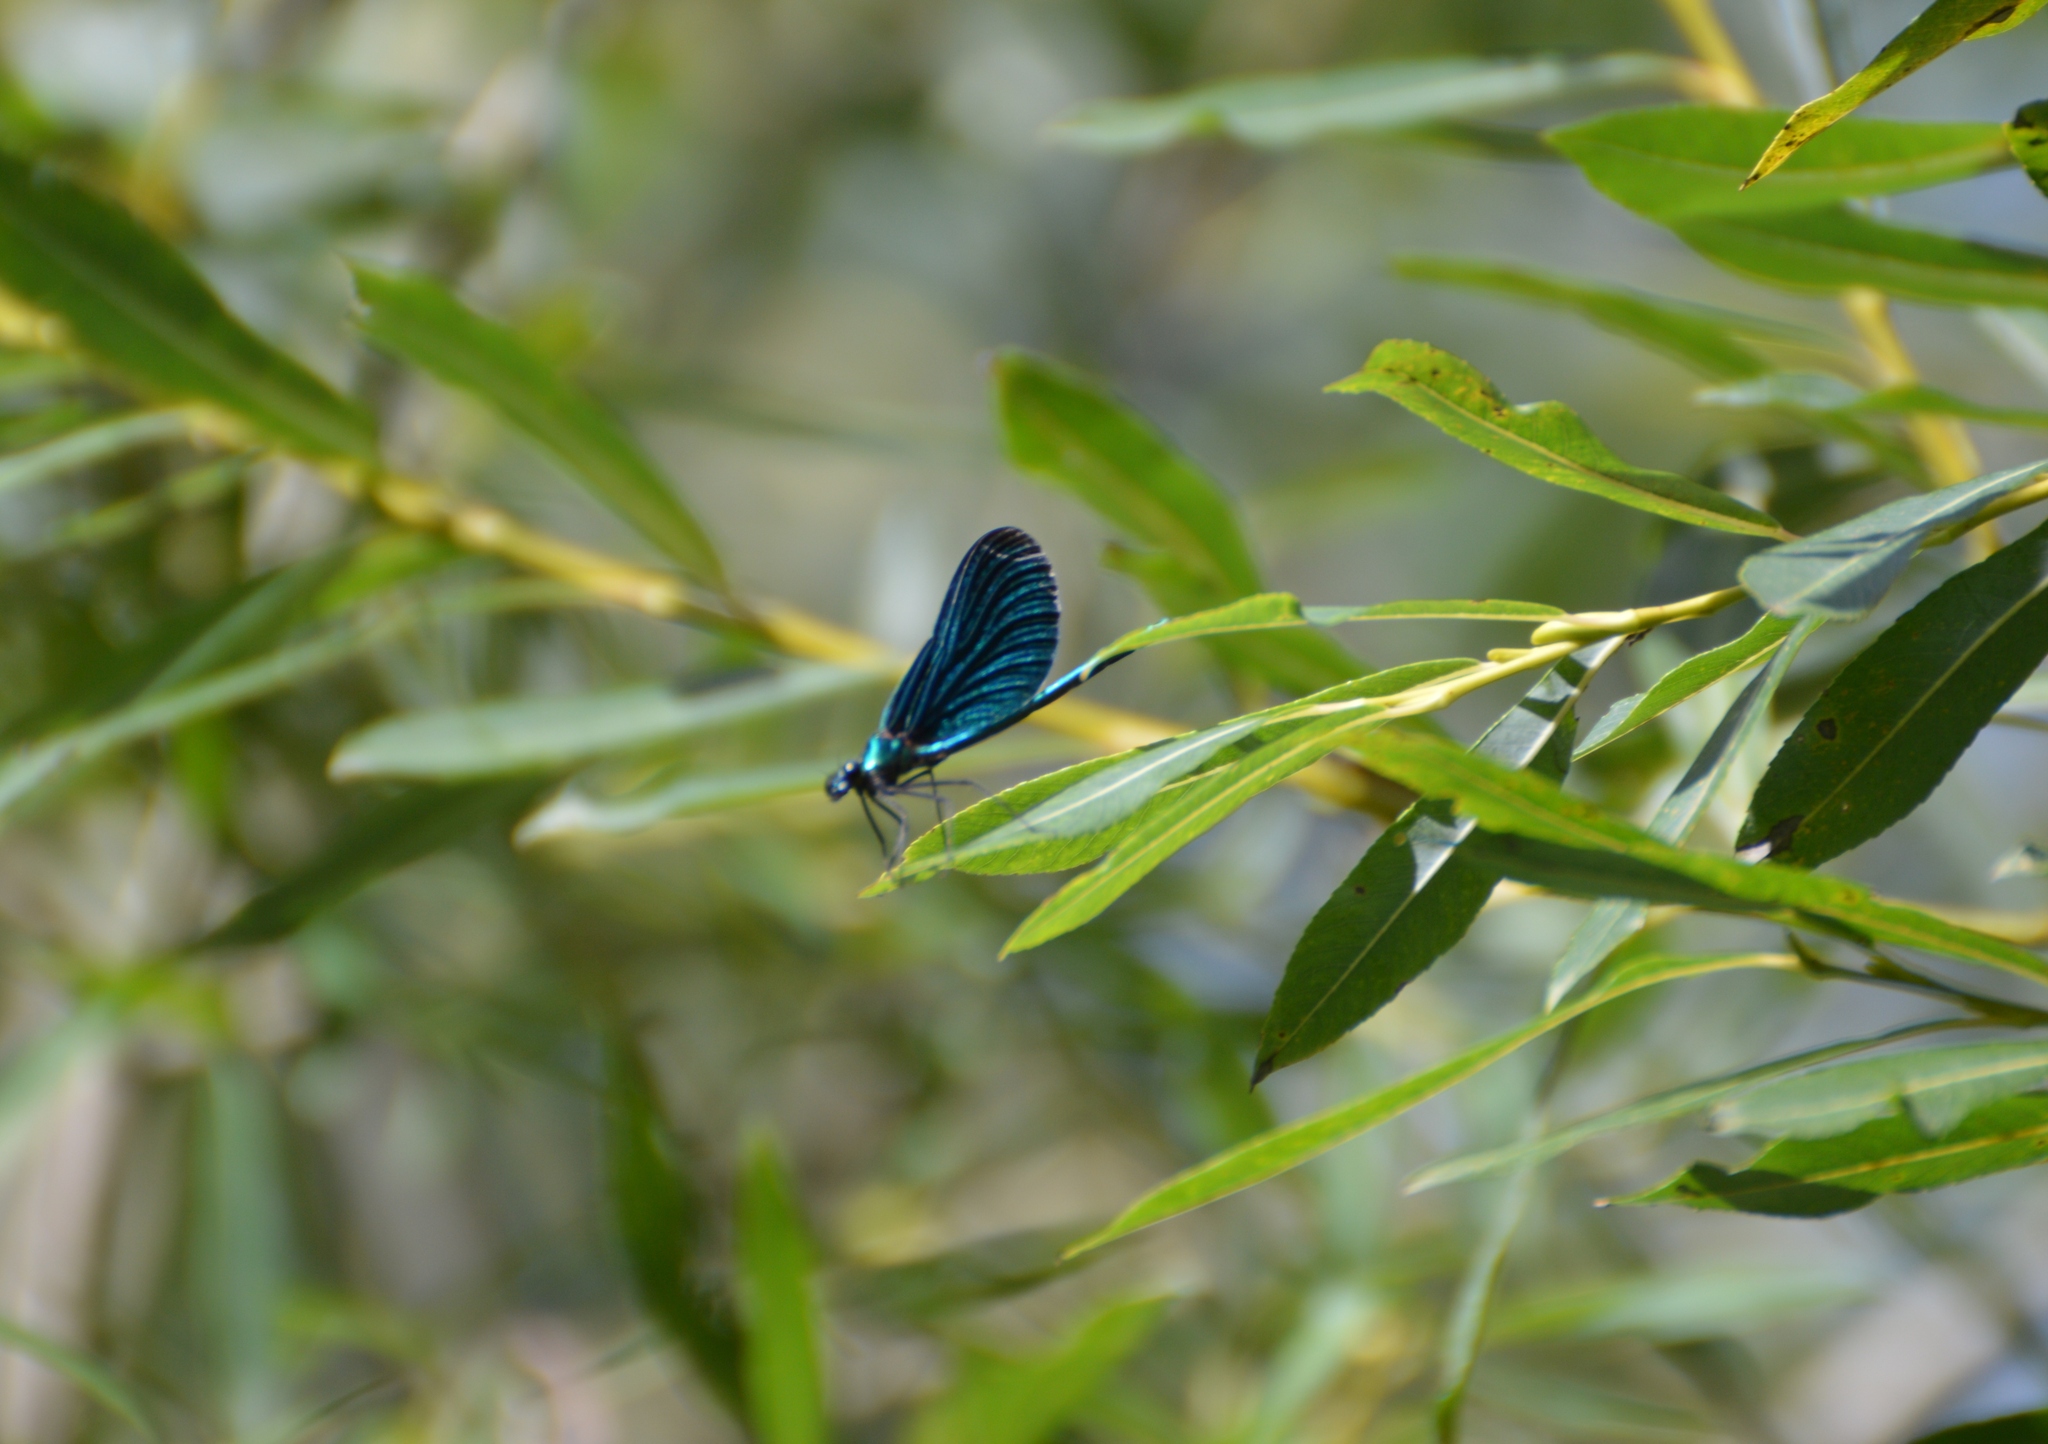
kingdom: Animalia
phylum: Arthropoda
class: Insecta
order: Odonata
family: Calopterygidae
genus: Calopteryx
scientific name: Calopteryx virgo
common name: Beautiful demoiselle
